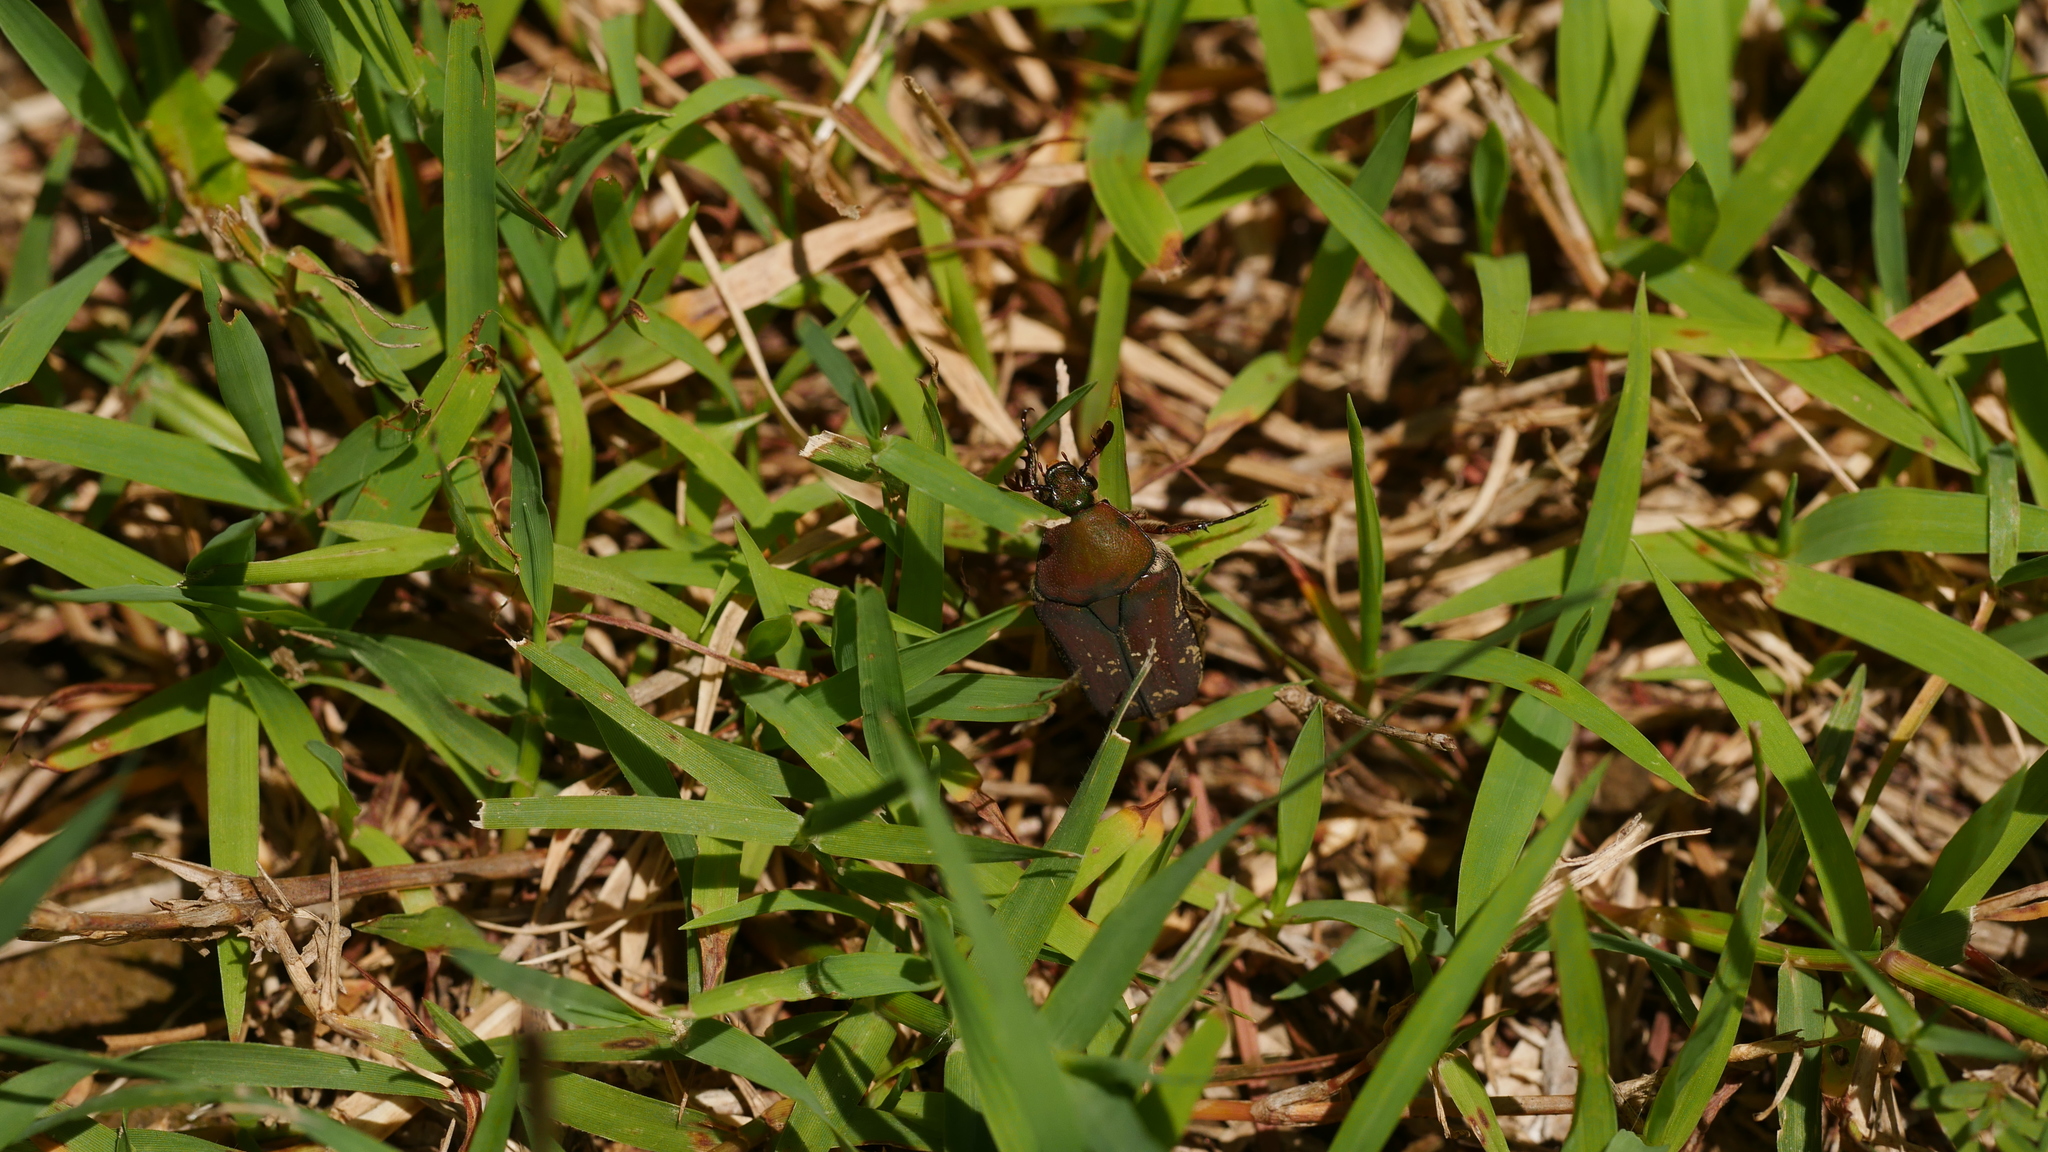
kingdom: Animalia
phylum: Arthropoda
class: Insecta
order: Coleoptera
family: Scarabaeidae
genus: Euphoria
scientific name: Euphoria herbacea
